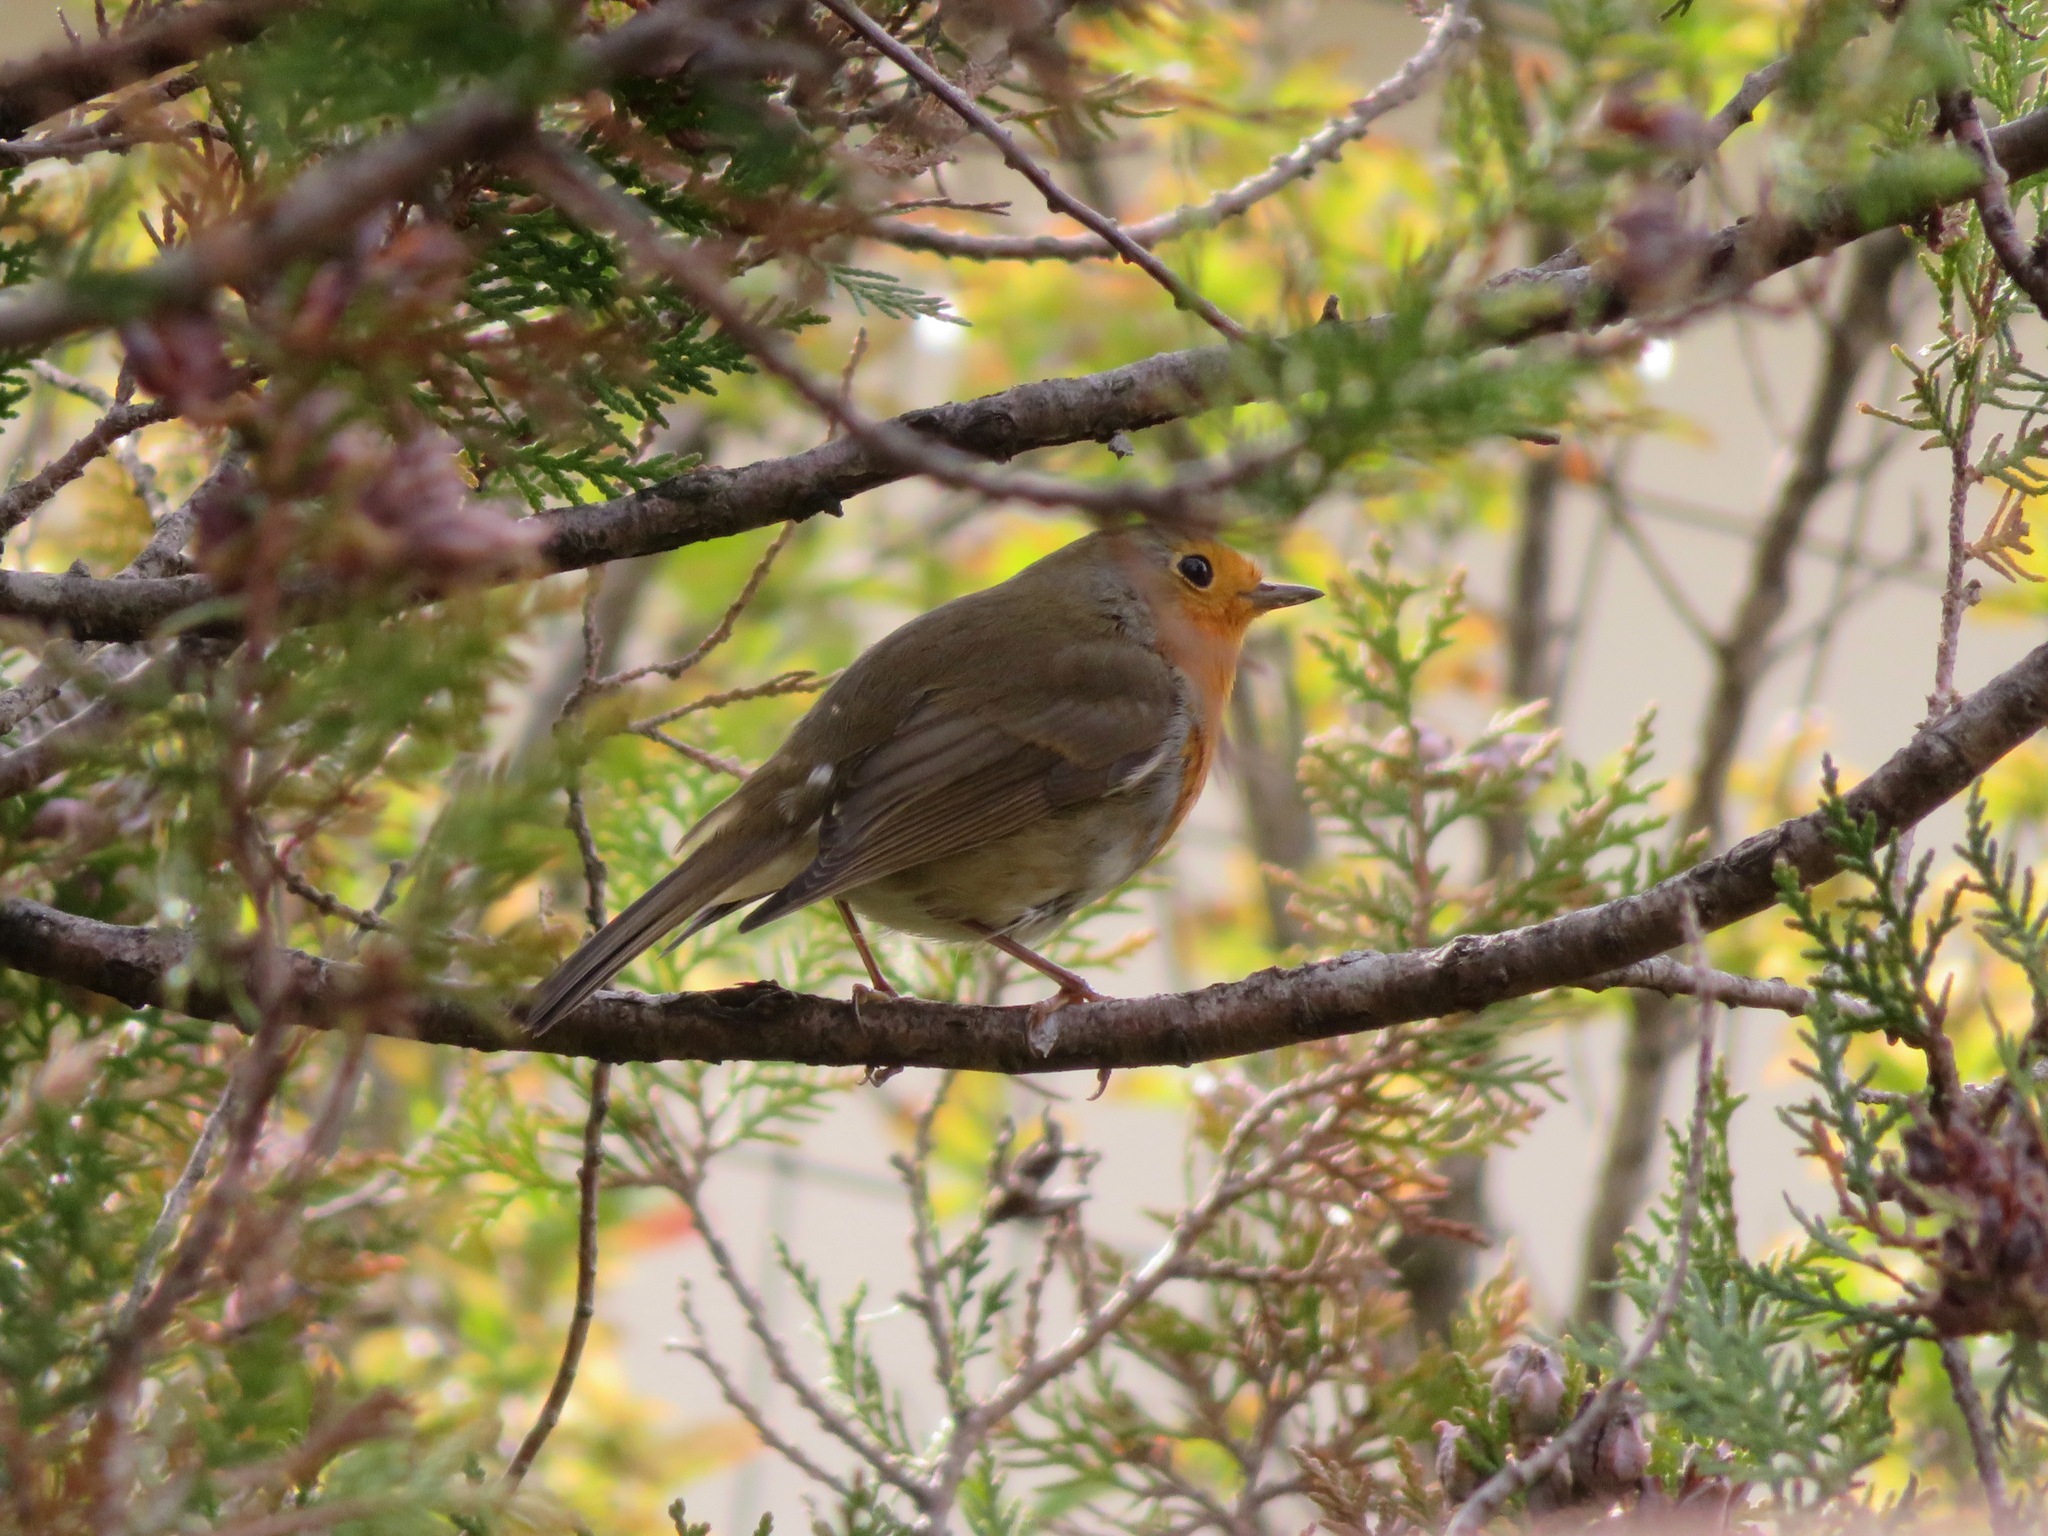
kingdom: Animalia
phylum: Chordata
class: Aves
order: Passeriformes
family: Muscicapidae
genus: Erithacus
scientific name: Erithacus rubecula
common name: European robin
